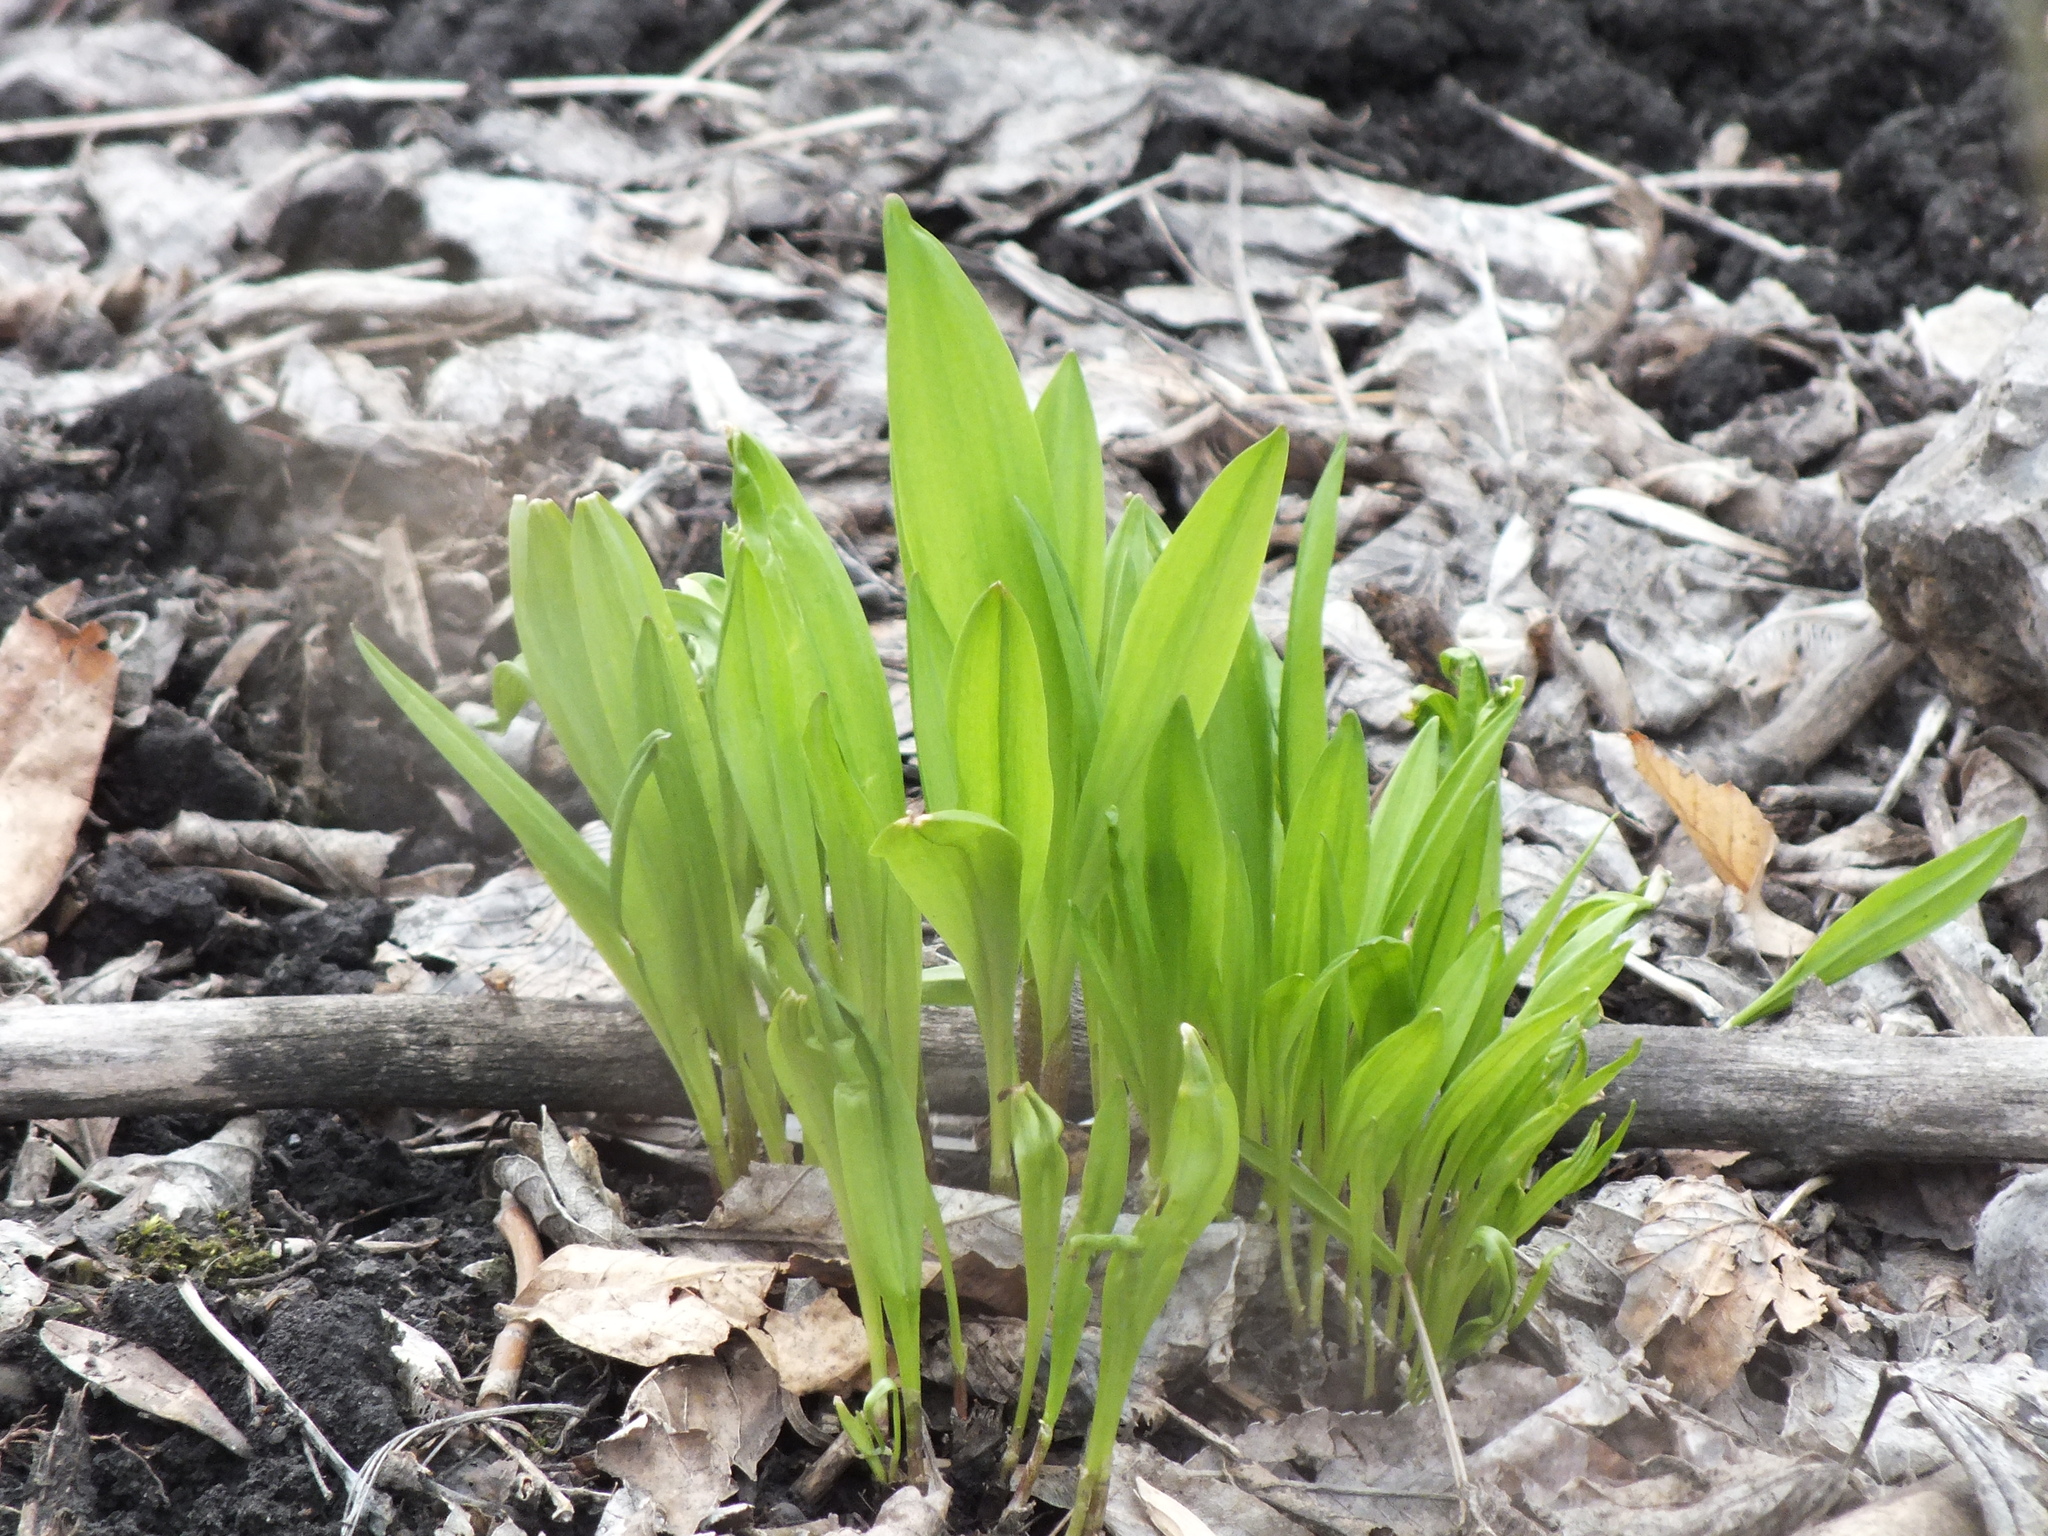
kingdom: Plantae
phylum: Tracheophyta
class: Liliopsida
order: Asparagales
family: Amaryllidaceae
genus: Allium
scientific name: Allium microdictyon
